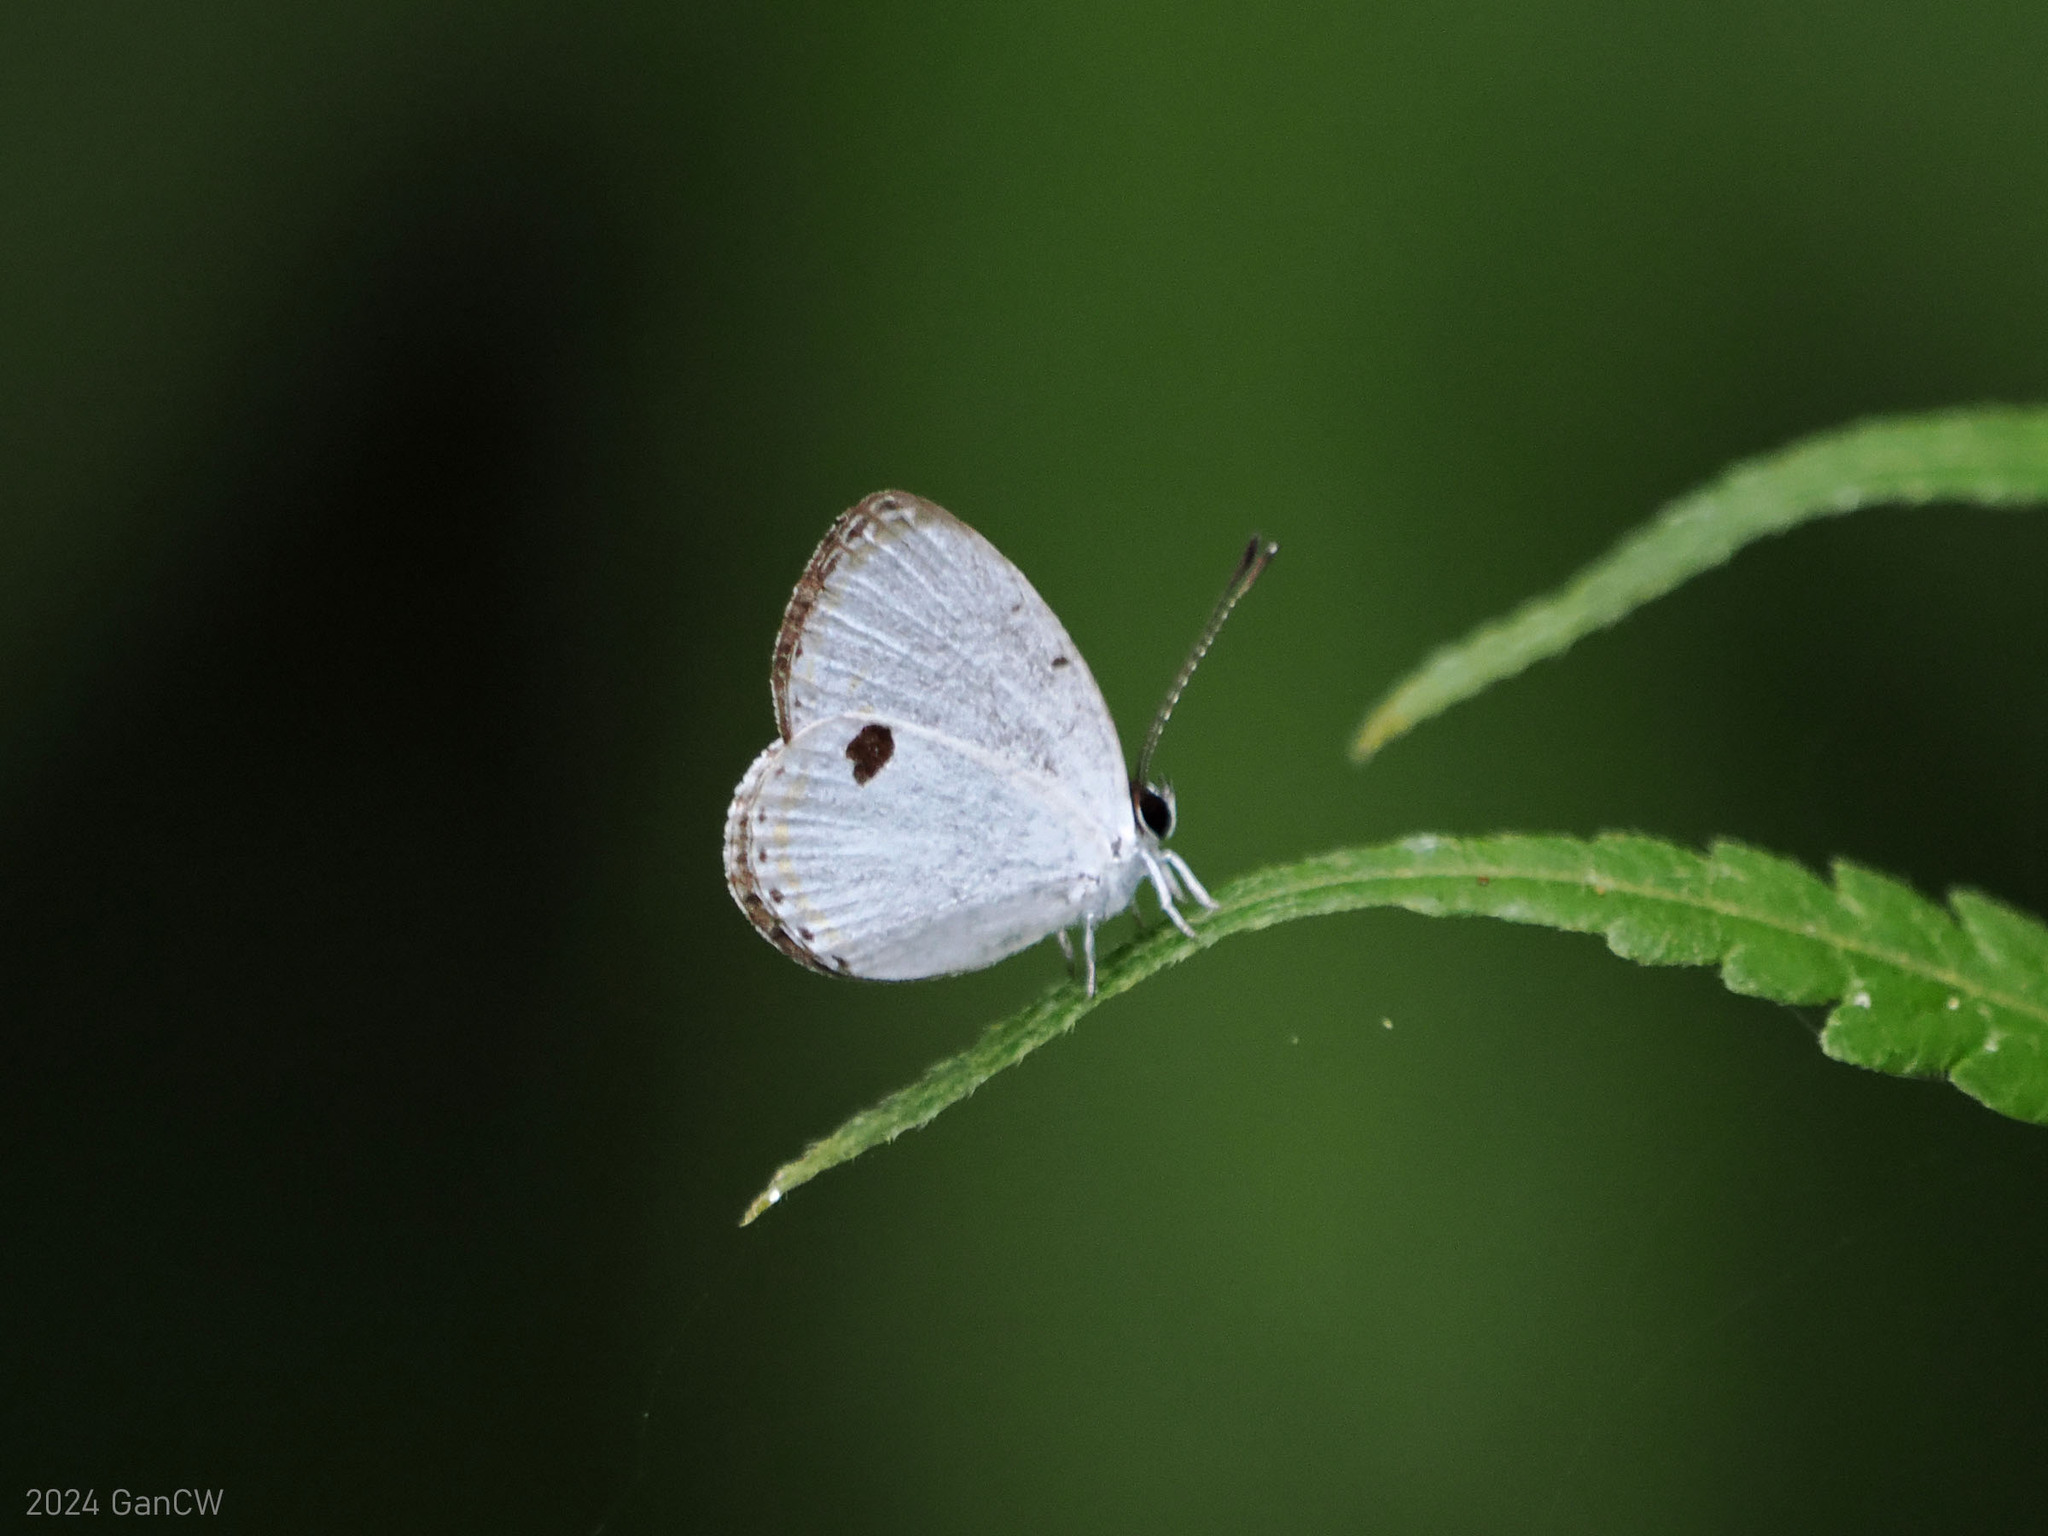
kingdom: Animalia
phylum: Arthropoda
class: Insecta
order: Lepidoptera
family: Lycaenidae
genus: Pithecops
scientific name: Pithecops corvus
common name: Forest quaker
